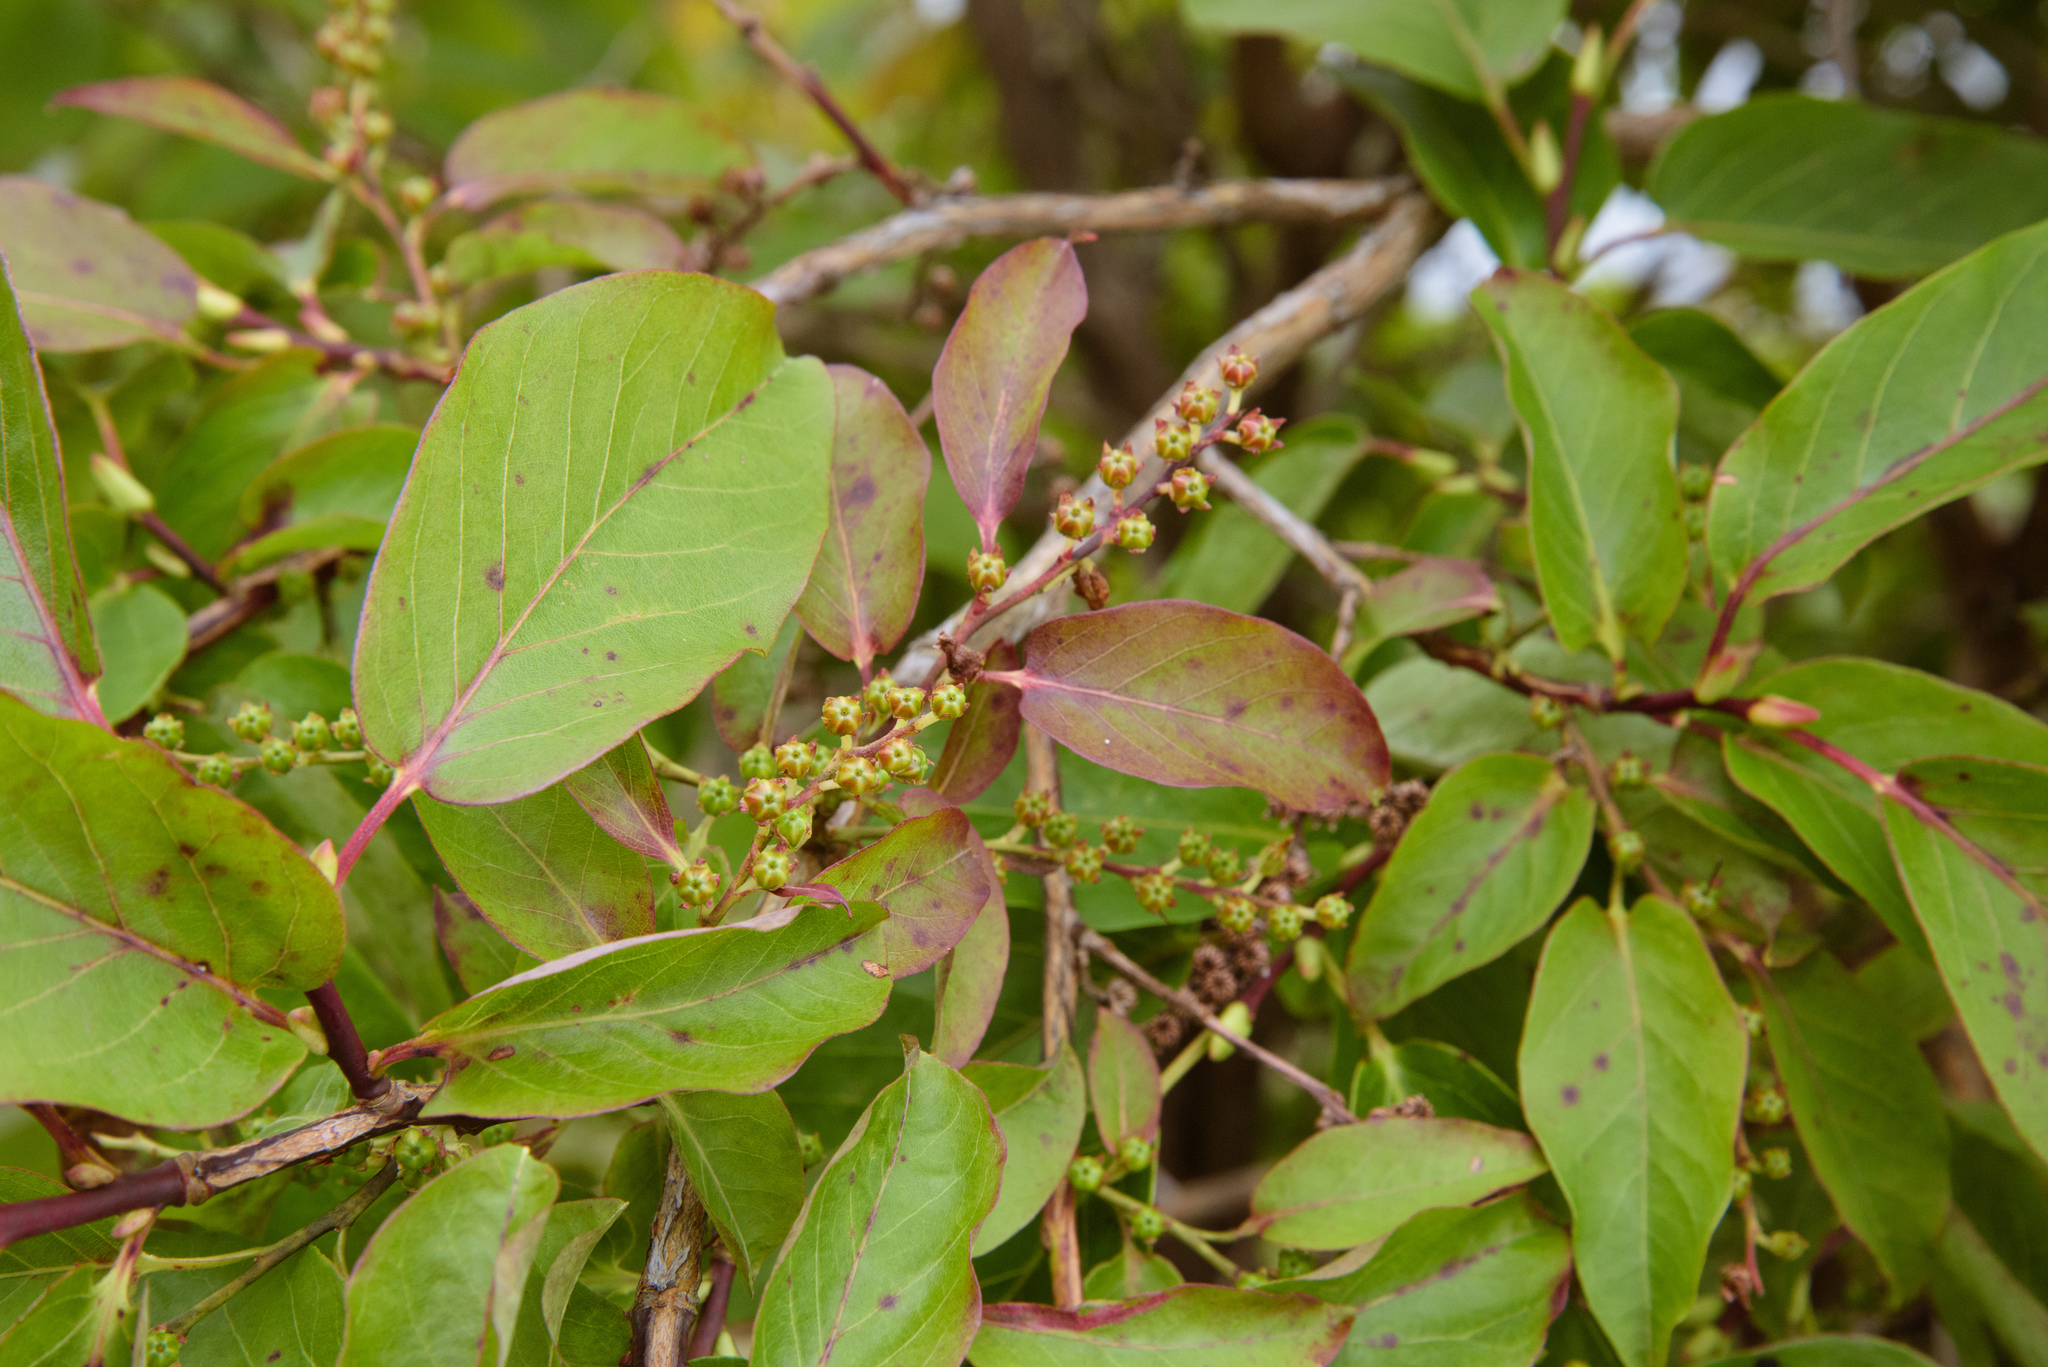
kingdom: Plantae
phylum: Tracheophyta
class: Magnoliopsida
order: Ericales
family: Ericaceae
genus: Lyonia
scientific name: Lyonia ovalifolia
